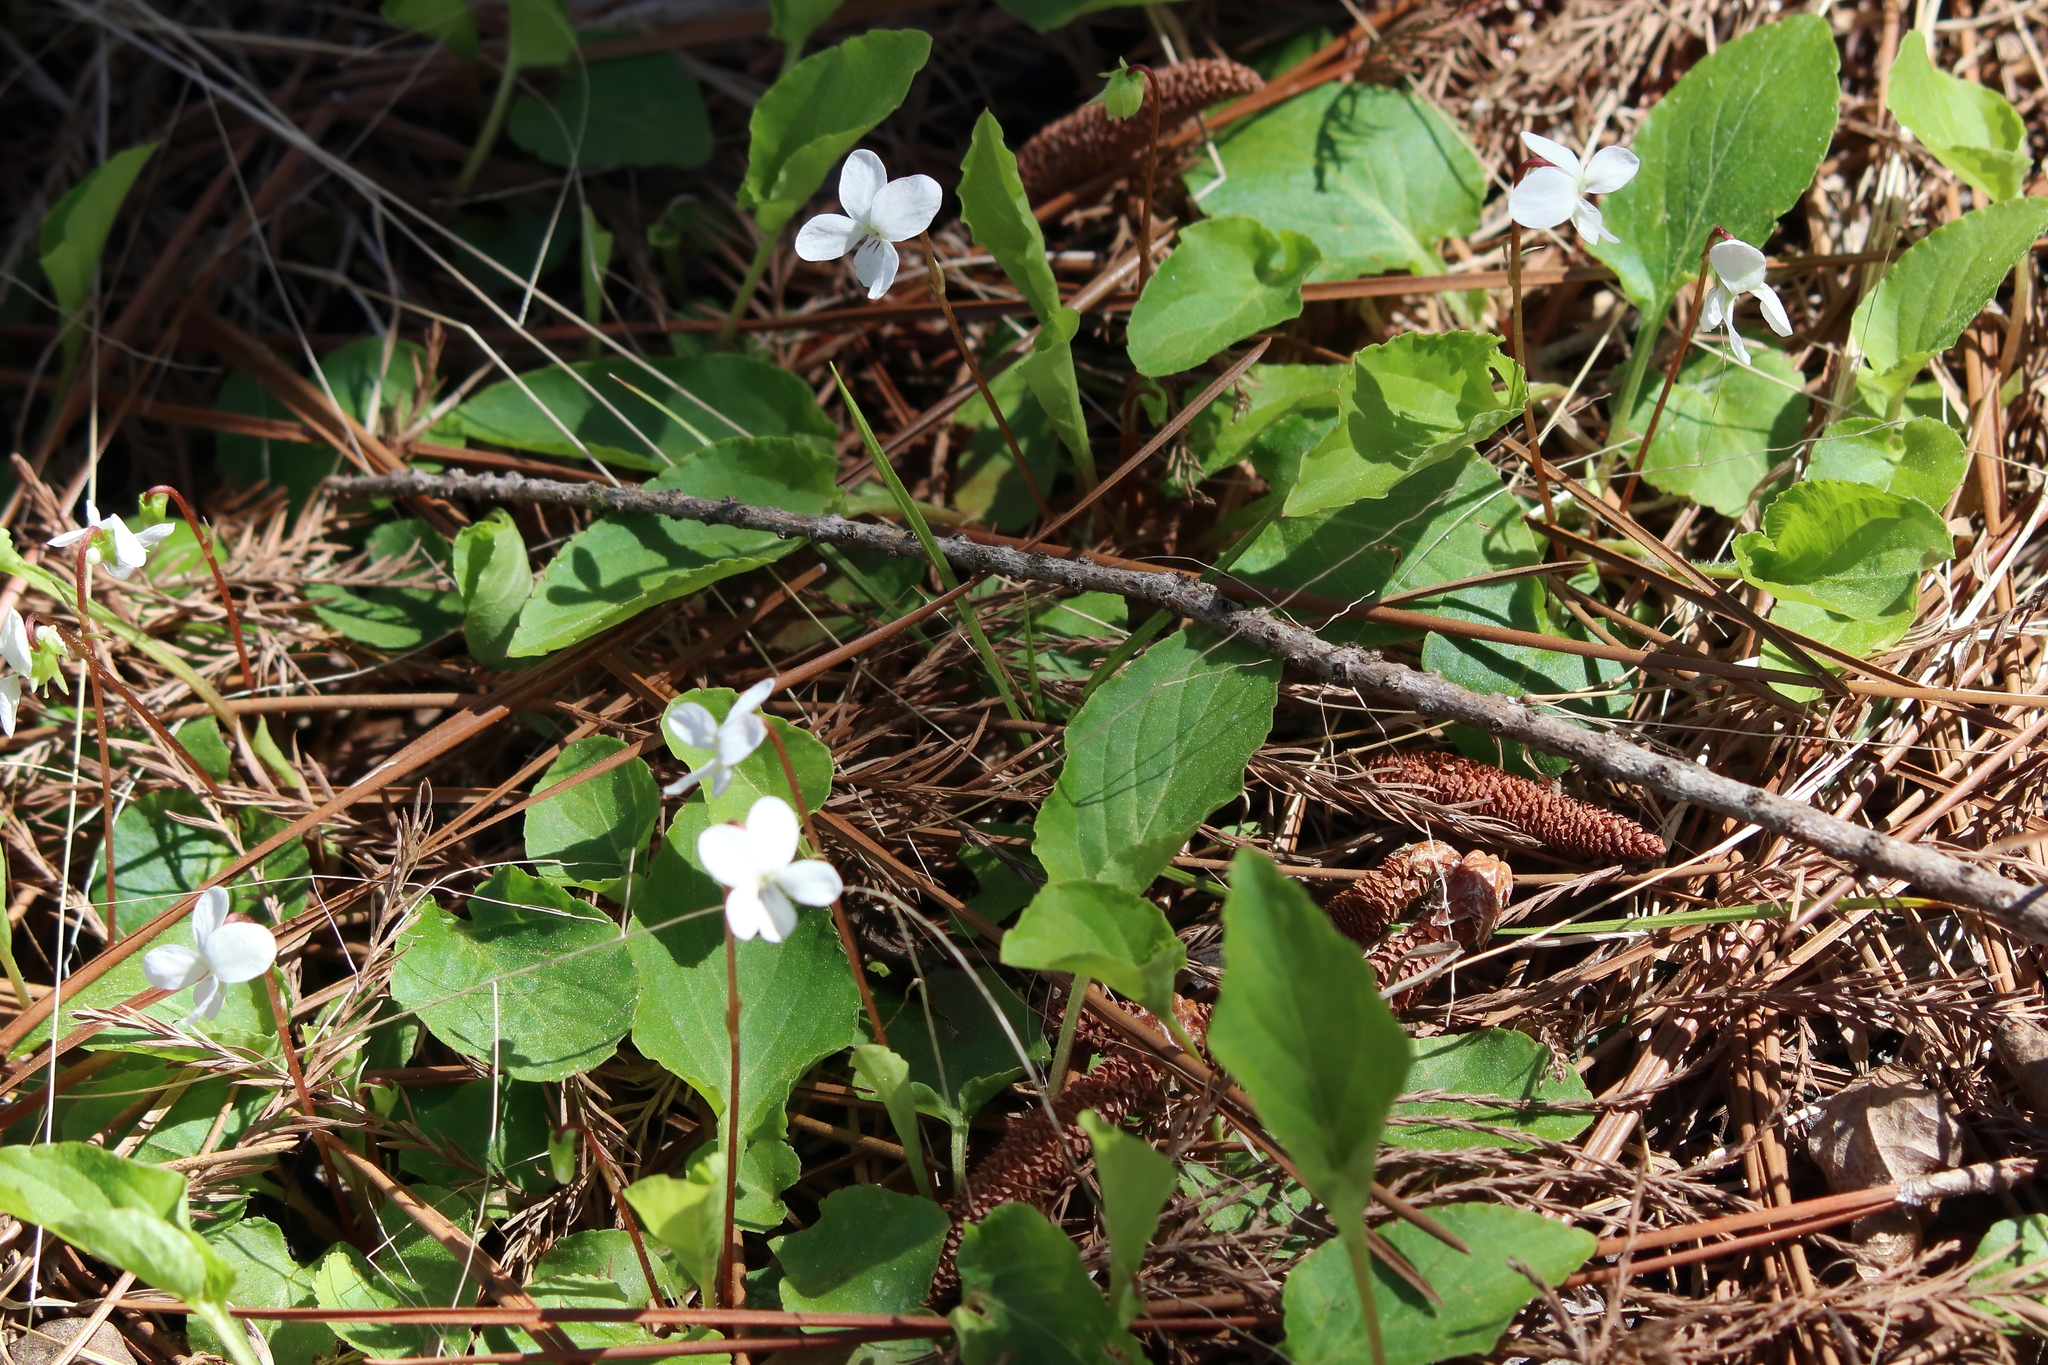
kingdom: Plantae
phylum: Tracheophyta
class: Magnoliopsida
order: Malpighiales
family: Violaceae
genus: Viola
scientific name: Viola primulifolia
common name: Primrose-leaf violet
